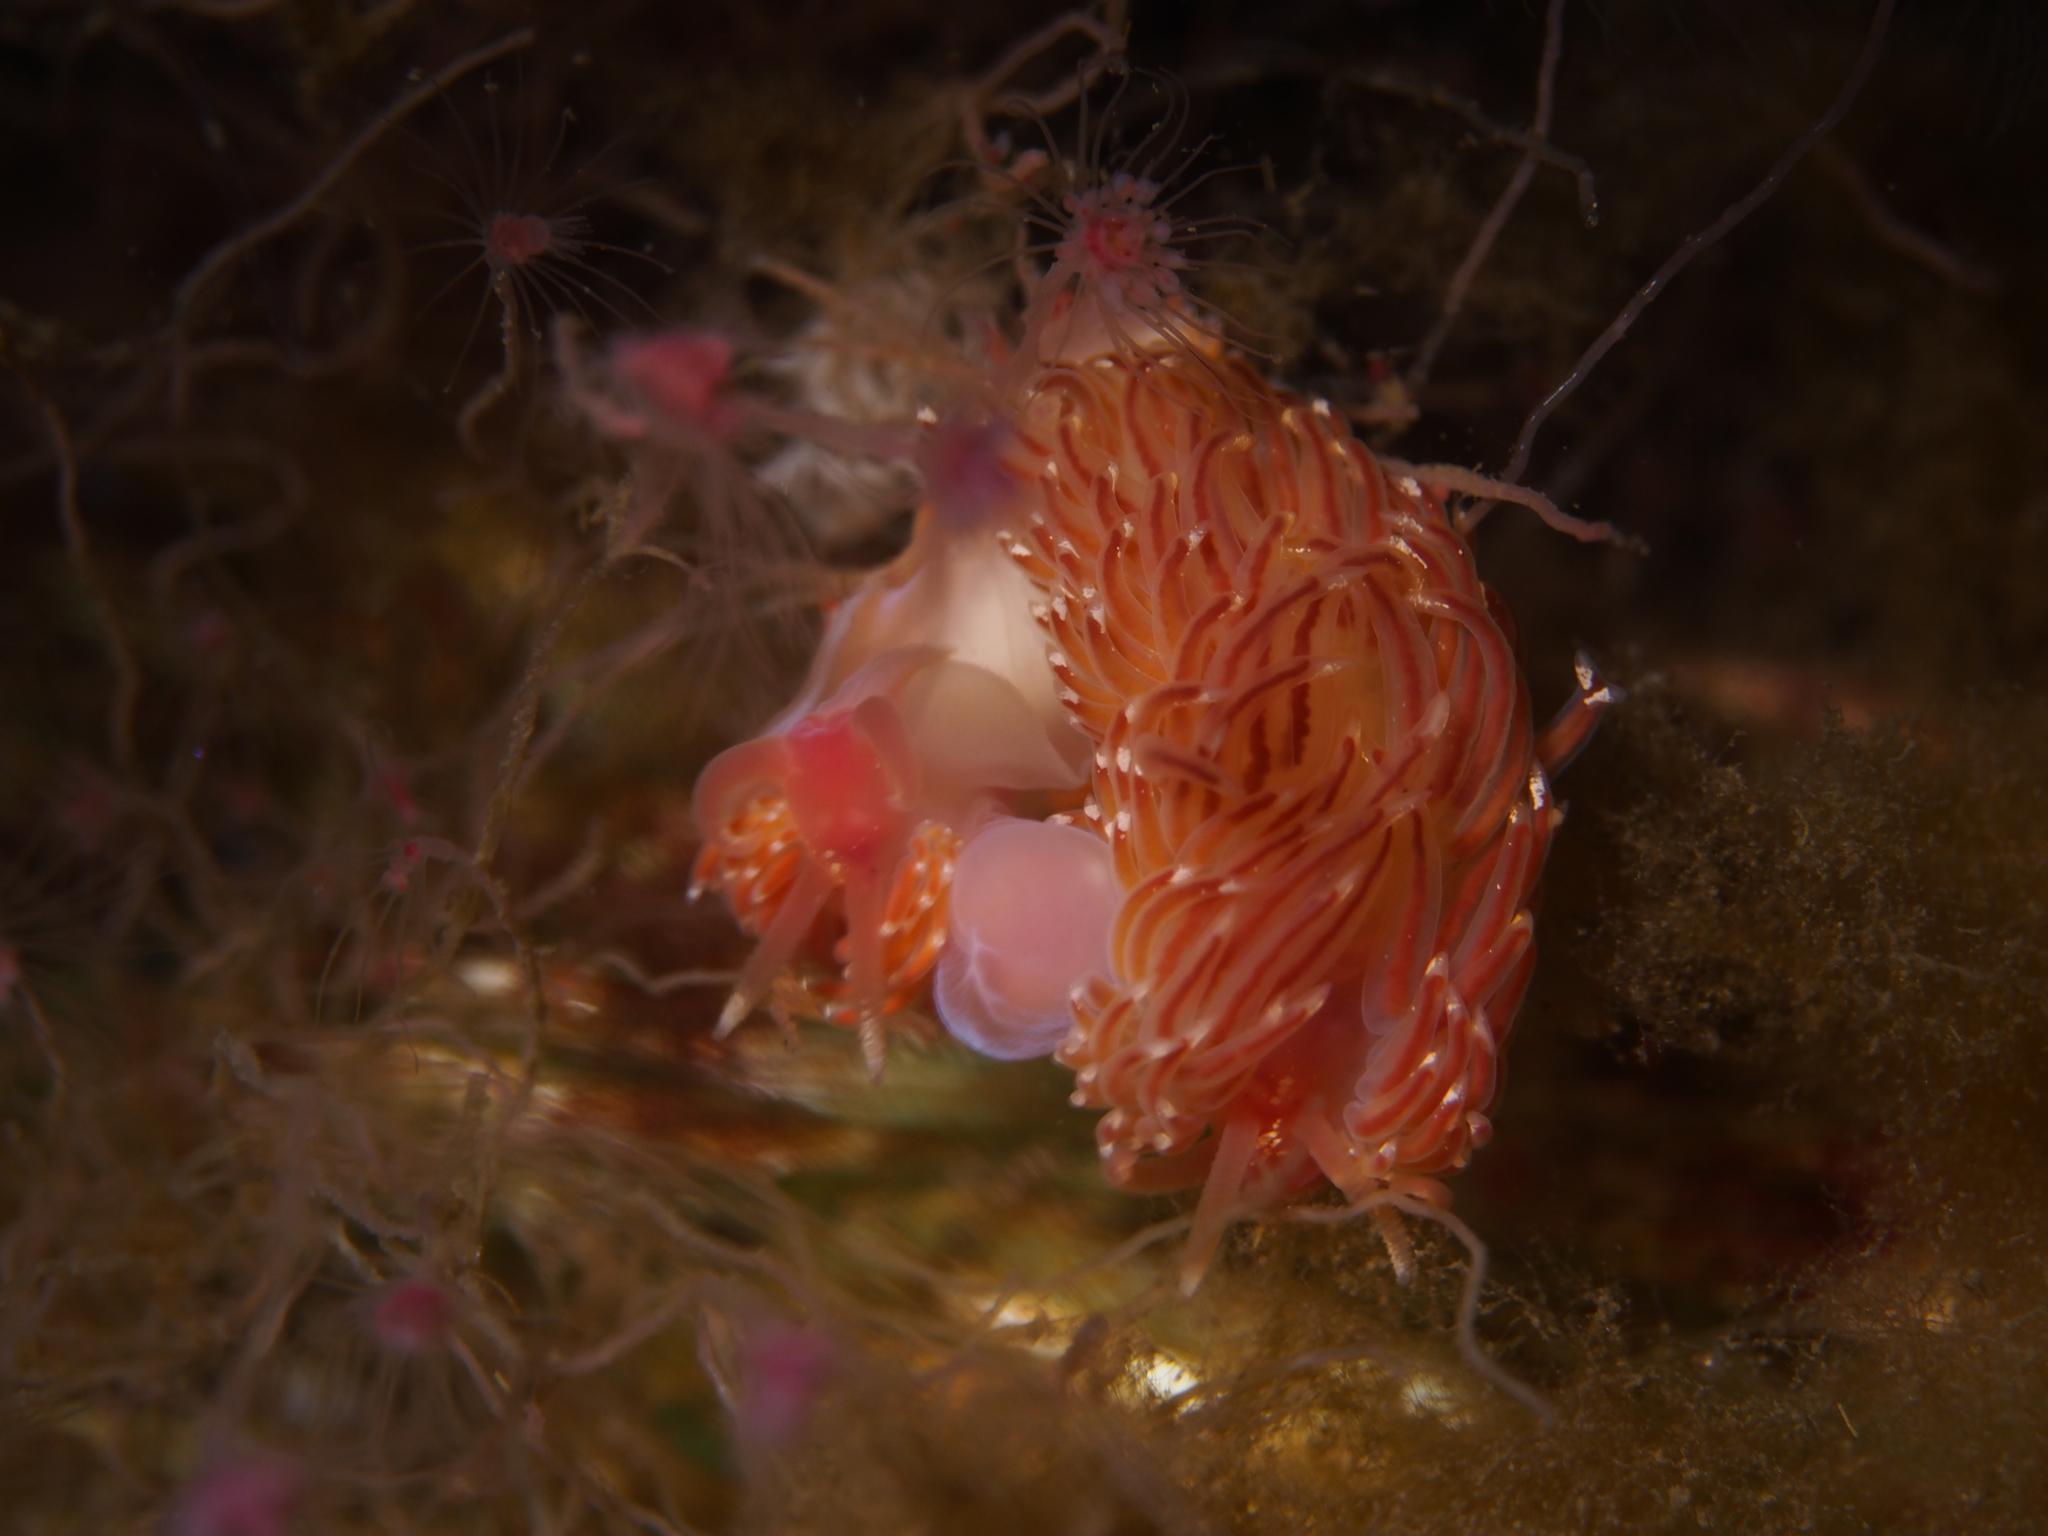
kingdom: Animalia
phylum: Mollusca
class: Gastropoda
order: Nudibranchia
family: Facelinidae
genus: Facelina
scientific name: Facelina bostoniensis
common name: Boston facelina
